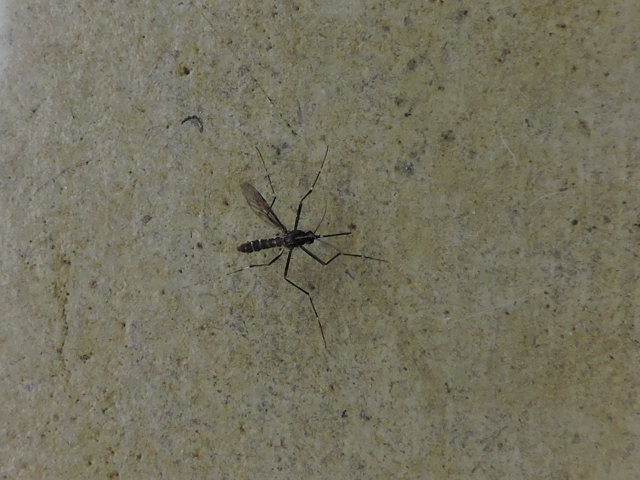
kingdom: Animalia
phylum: Arthropoda
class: Insecta
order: Diptera
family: Culicidae
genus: Aedes
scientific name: Aedes albopictus
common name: Tiger mosquito
